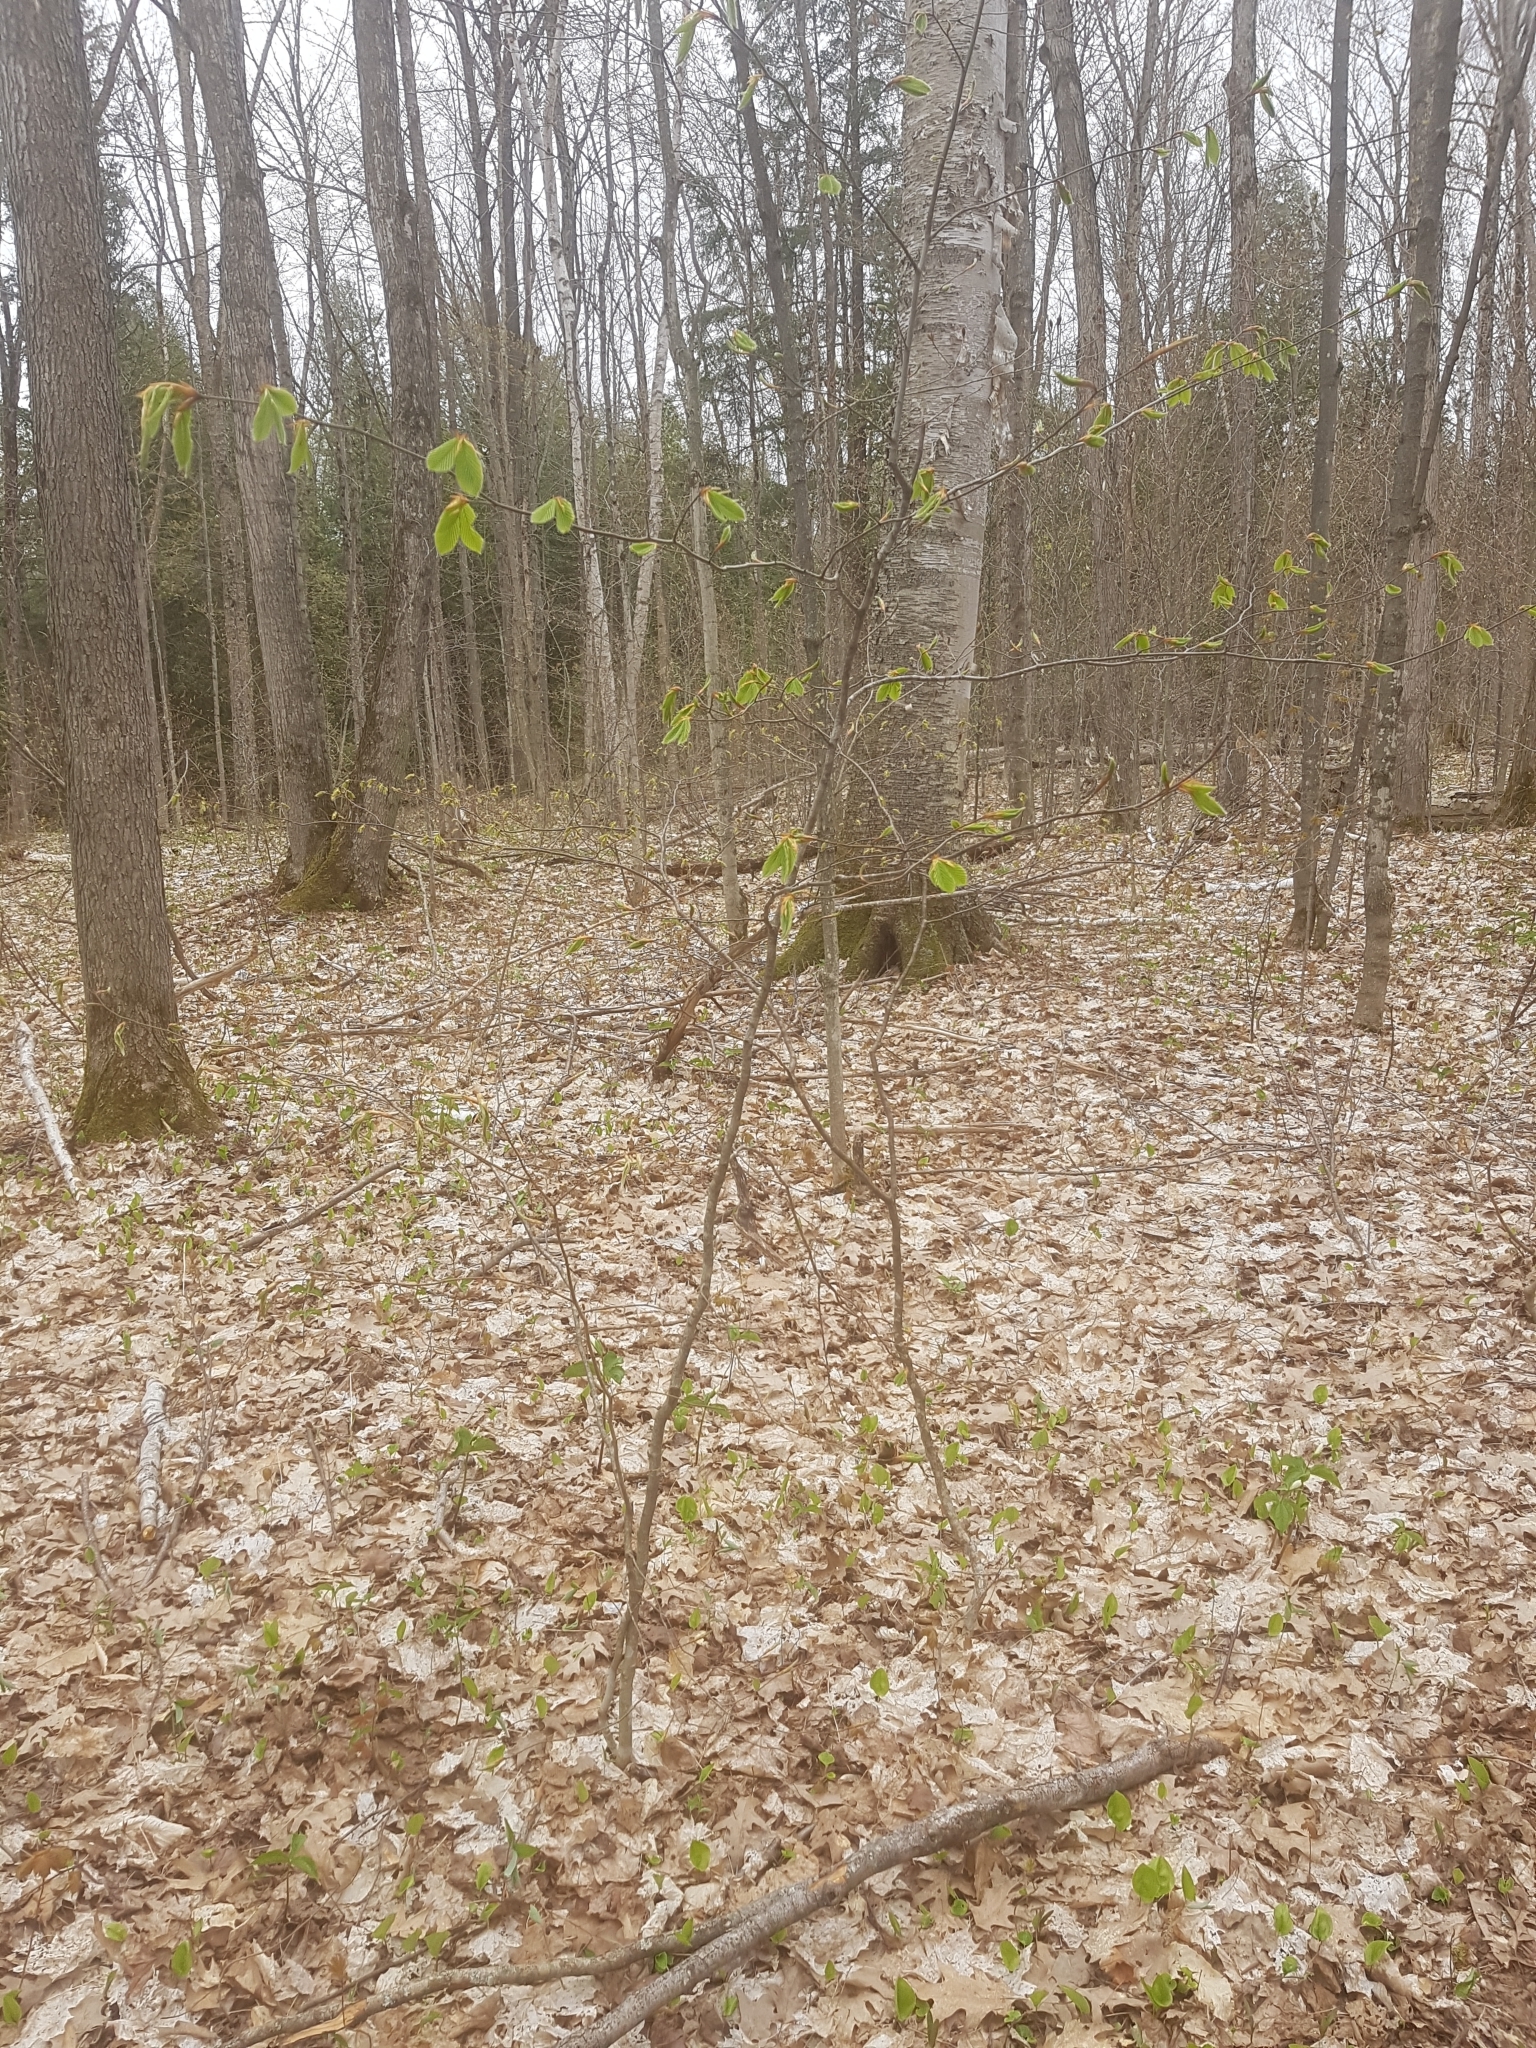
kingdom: Plantae
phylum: Tracheophyta
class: Magnoliopsida
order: Fagales
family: Fagaceae
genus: Fagus
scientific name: Fagus grandifolia
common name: American beech
